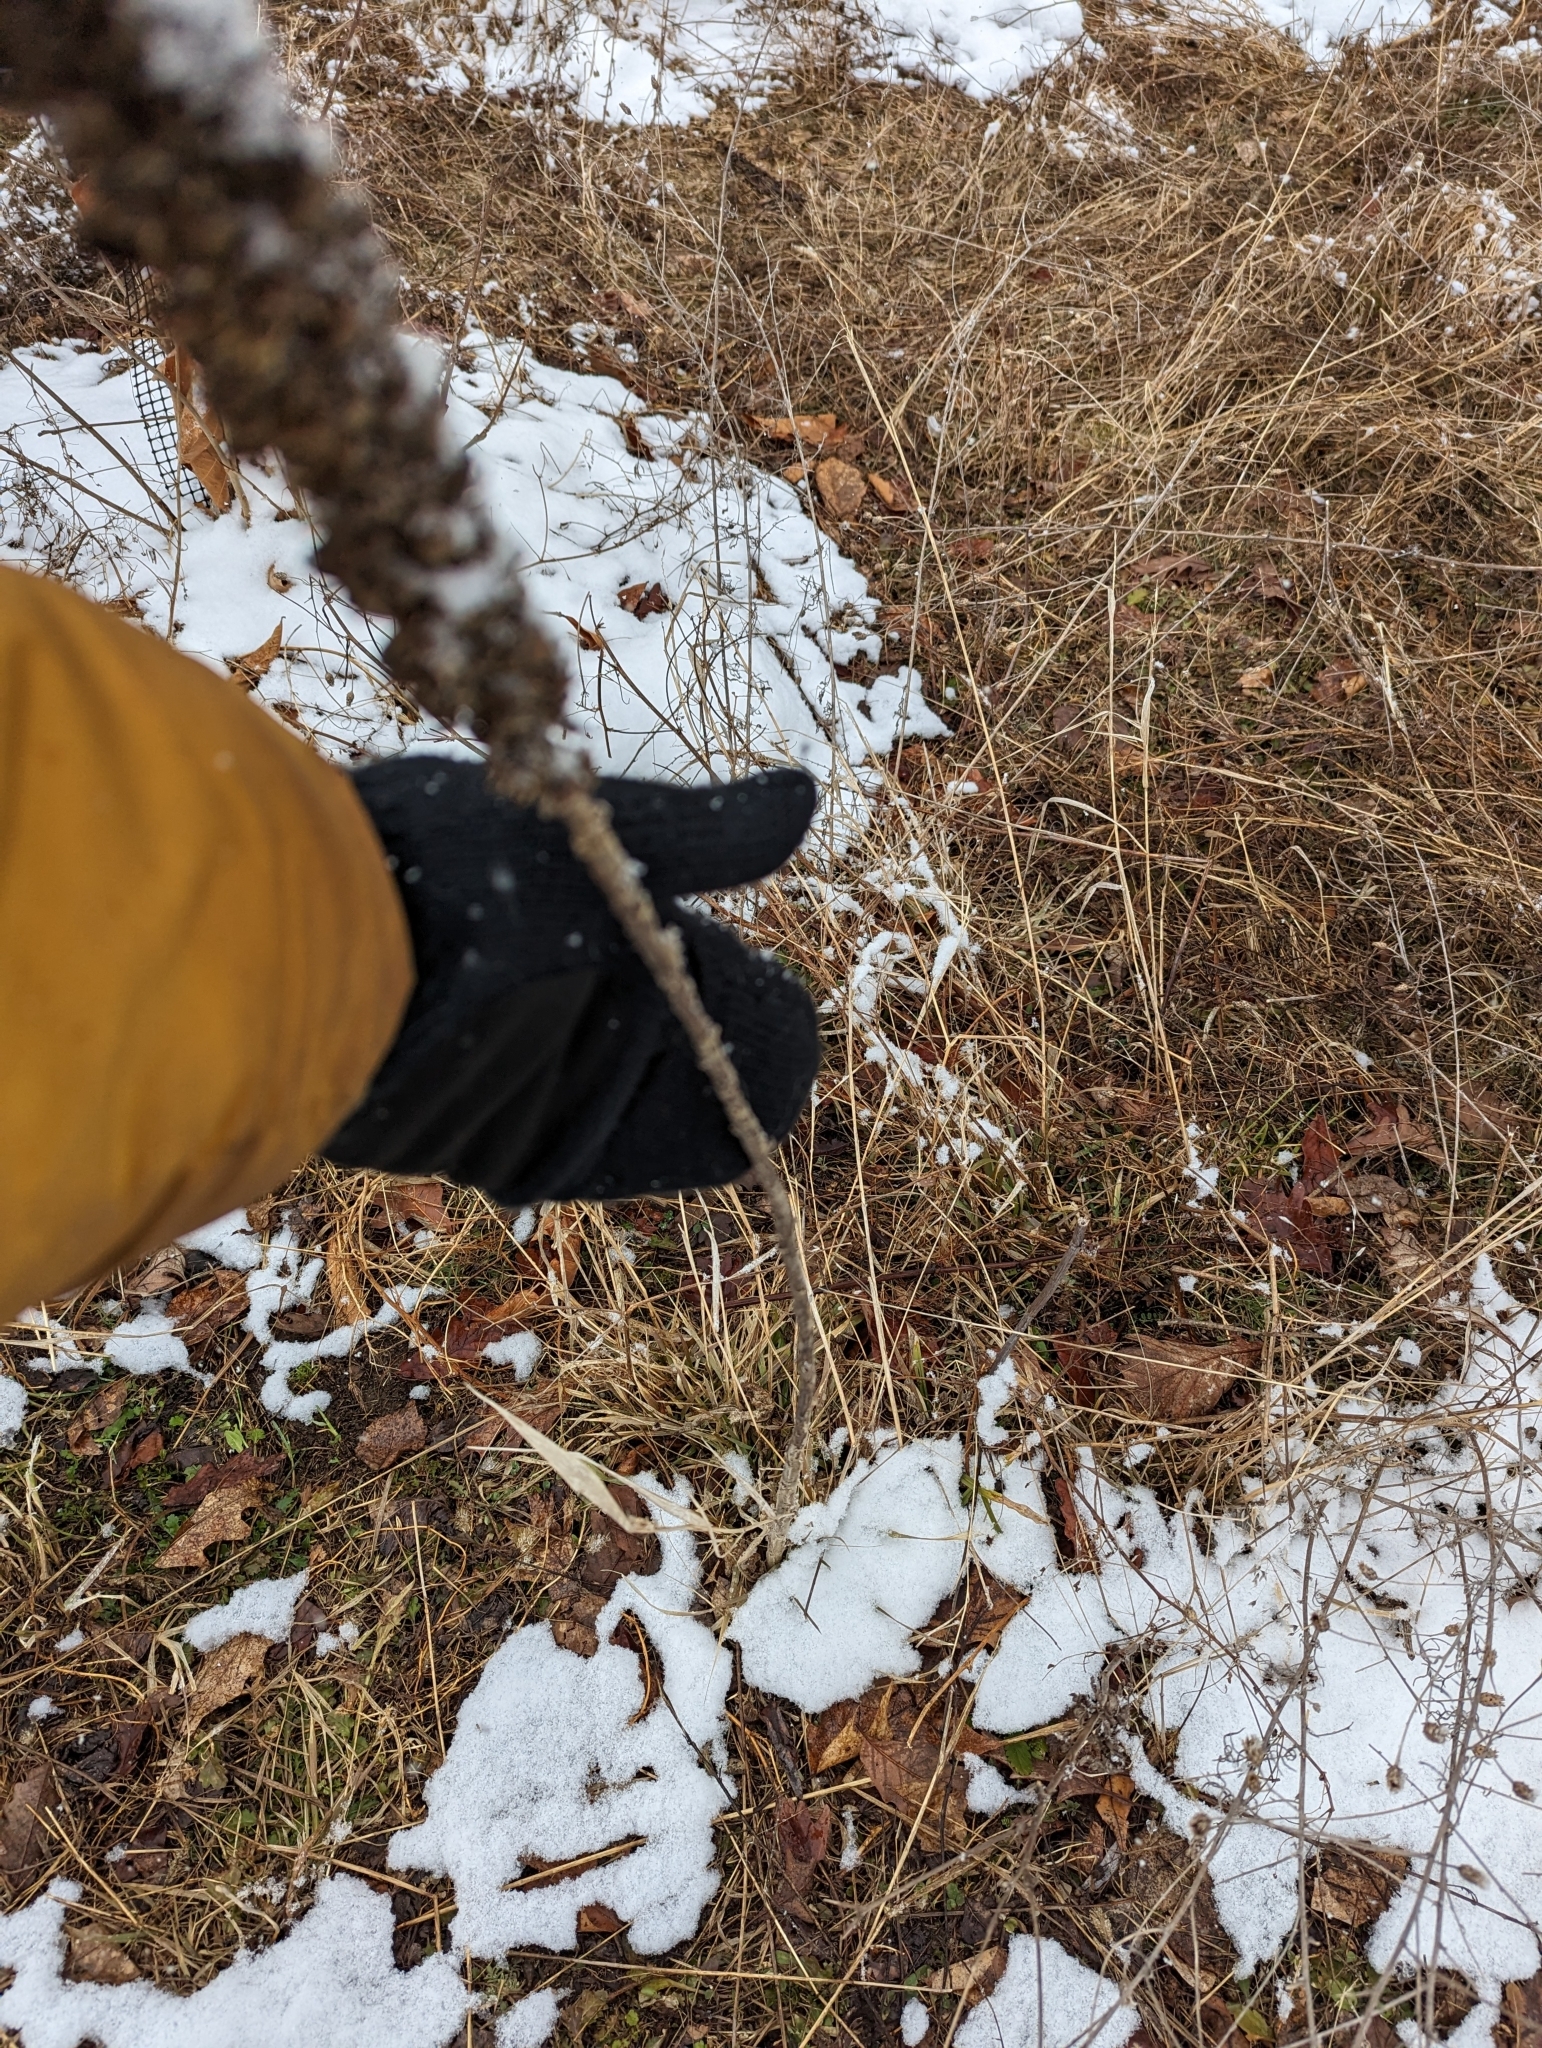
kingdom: Plantae
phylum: Tracheophyta
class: Magnoliopsida
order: Lamiales
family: Scrophulariaceae
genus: Verbascum
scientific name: Verbascum thapsus
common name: Common mullein
